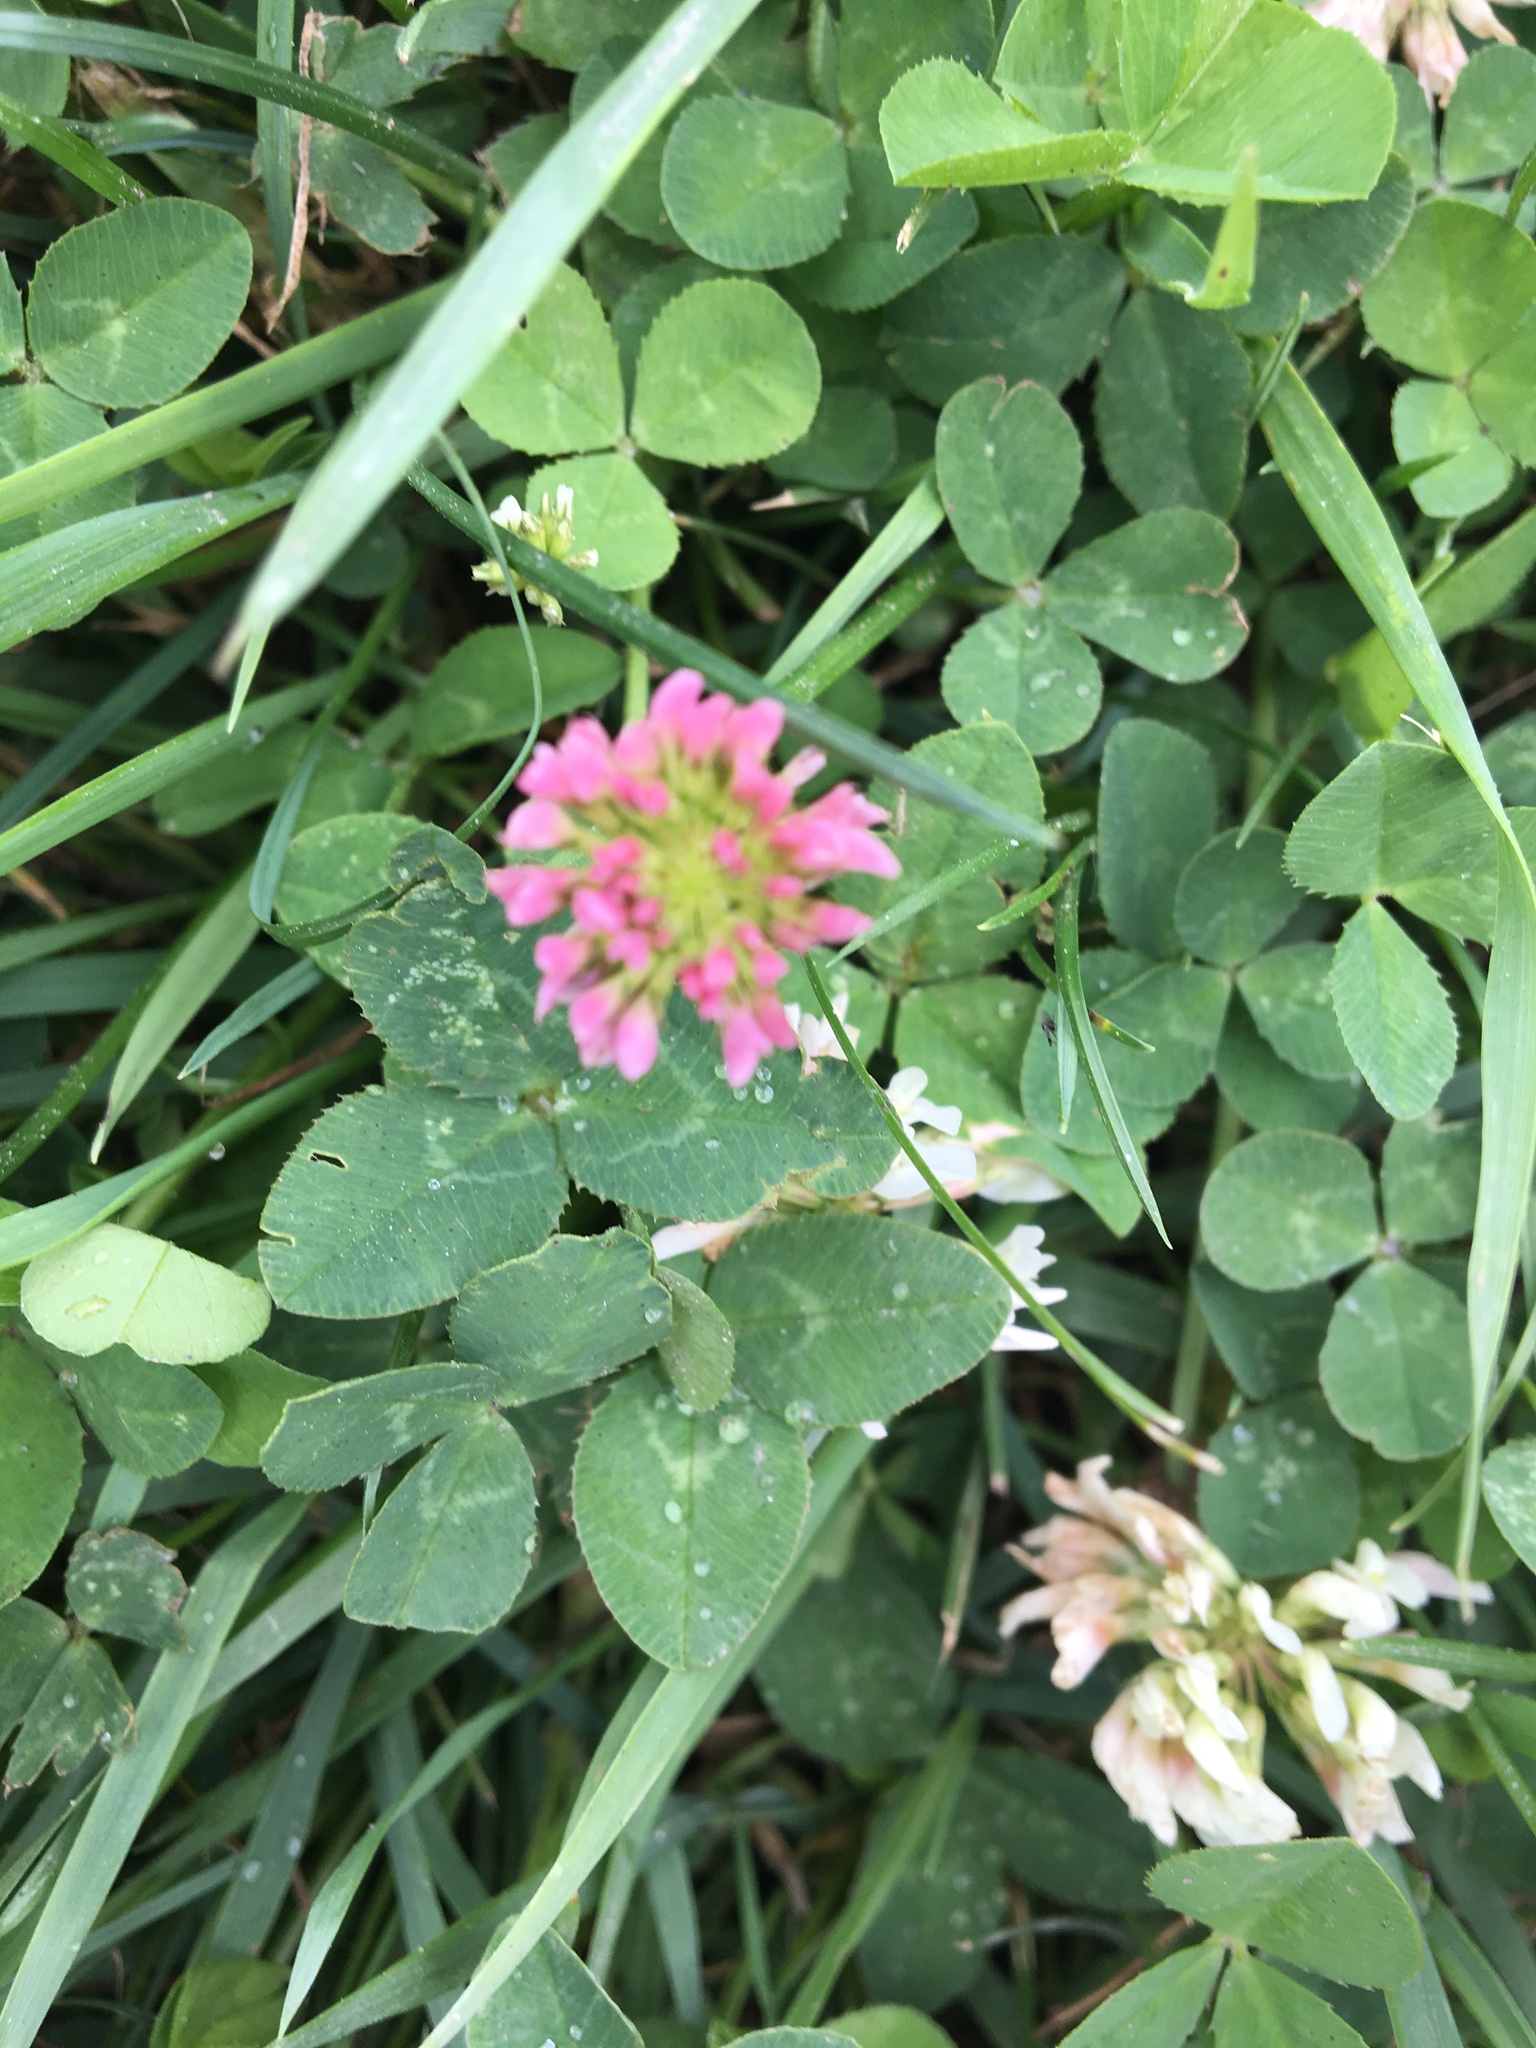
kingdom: Plantae
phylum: Tracheophyta
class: Magnoliopsida
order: Fabales
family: Fabaceae
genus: Trifolium
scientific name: Trifolium pratense
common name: Red clover
